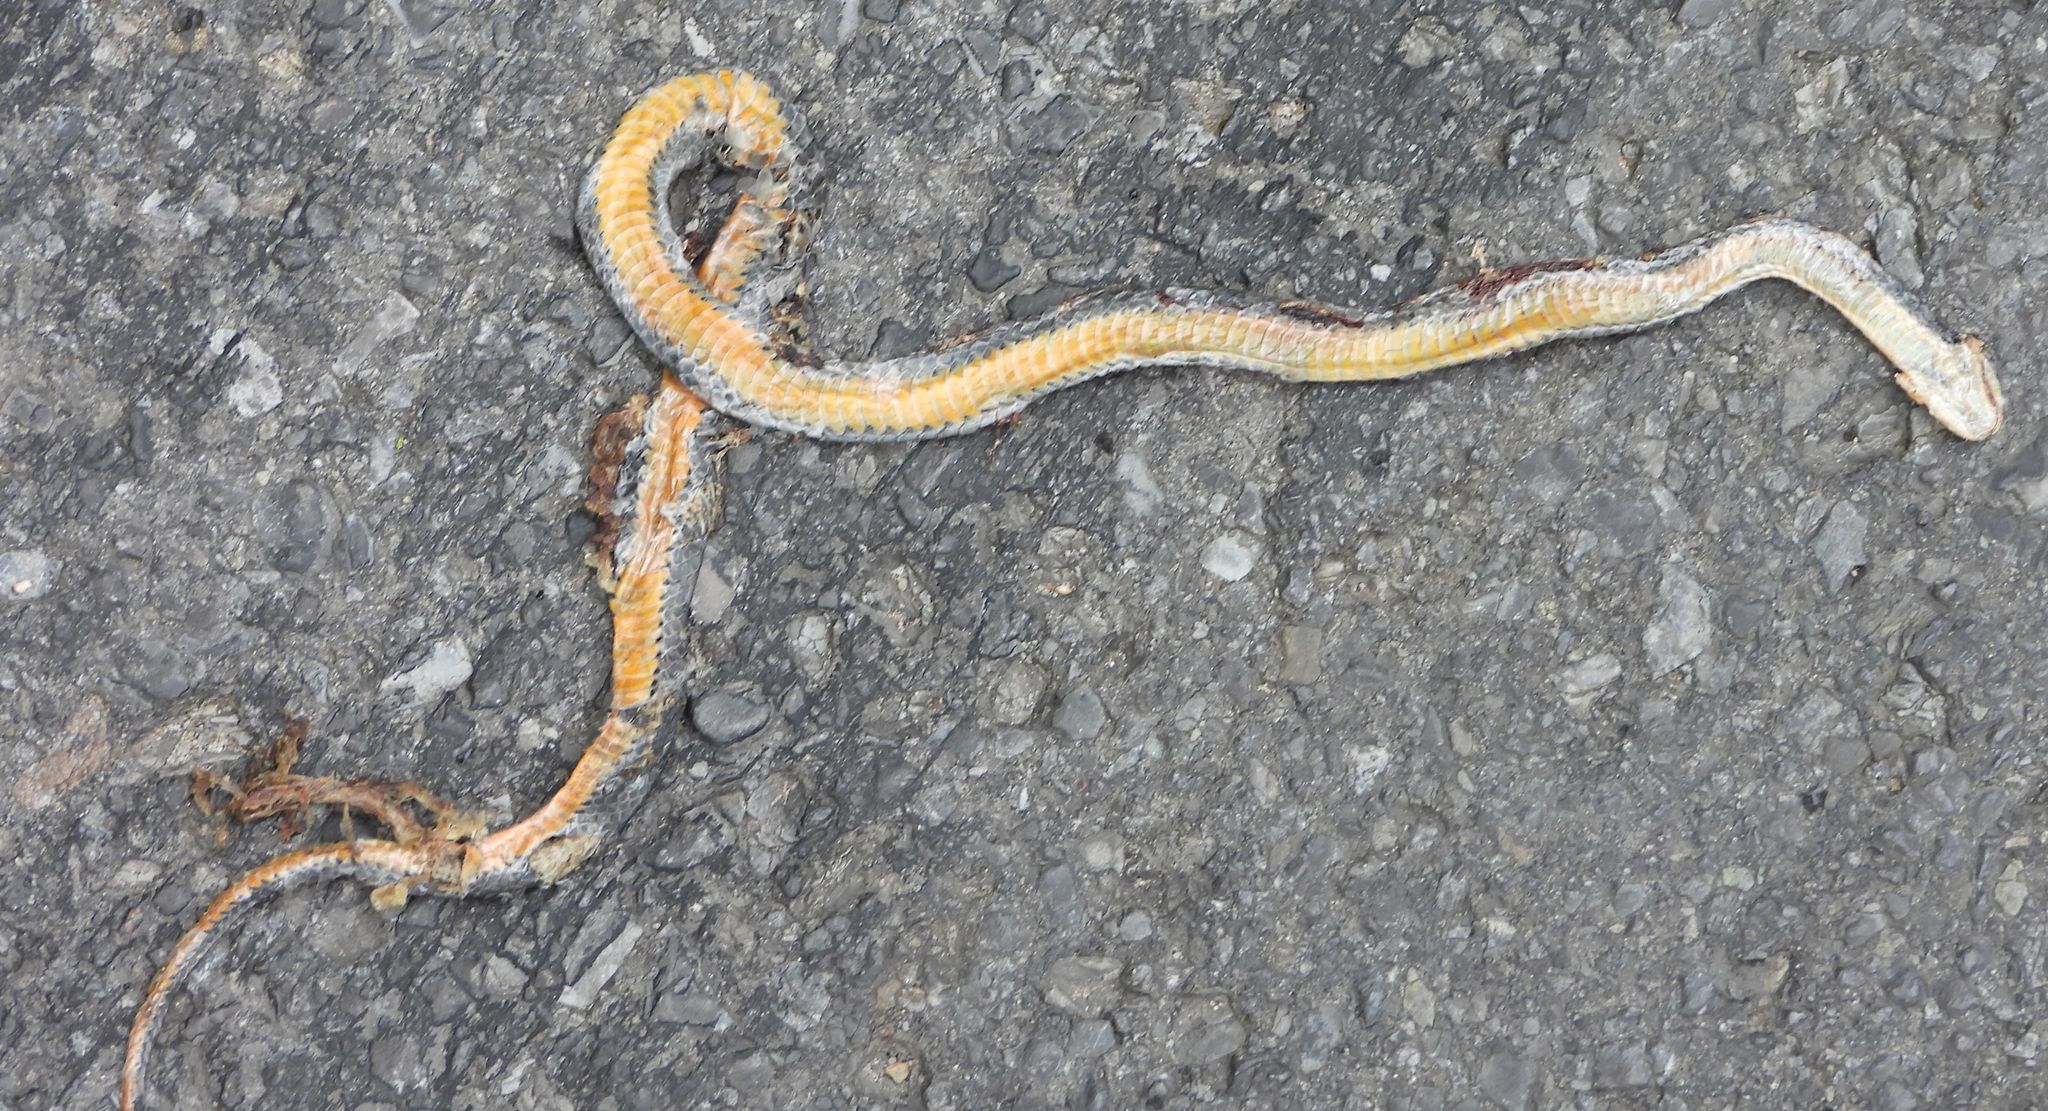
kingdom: Animalia
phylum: Chordata
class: Squamata
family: Colubridae
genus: Diadophis
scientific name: Diadophis punctatus
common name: Ringneck snake
